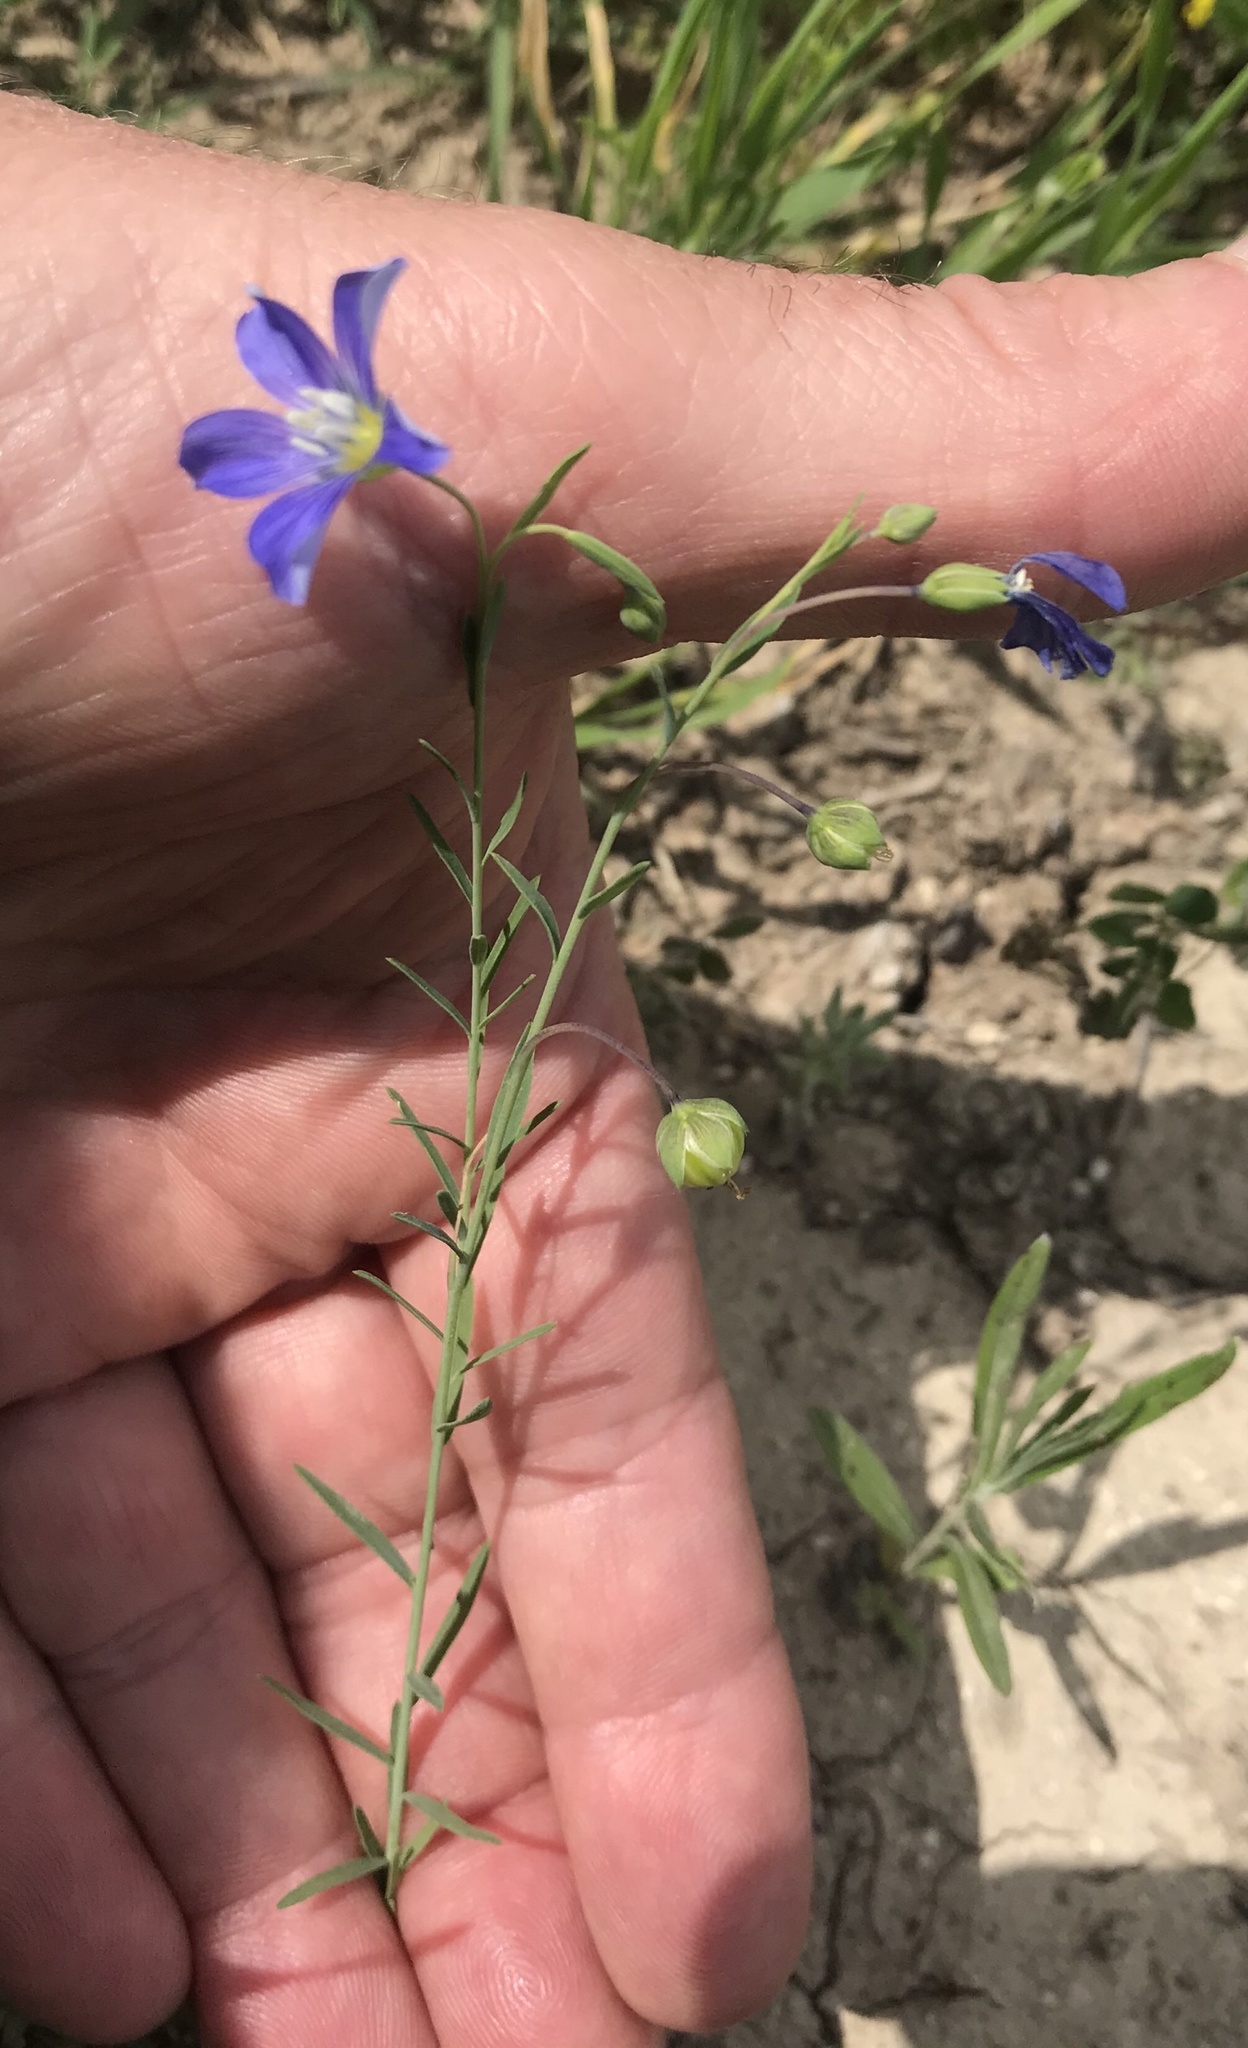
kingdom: Plantae
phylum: Tracheophyta
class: Magnoliopsida
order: Malpighiales
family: Linaceae
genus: Linum
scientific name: Linum pratense
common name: Norton's flax
